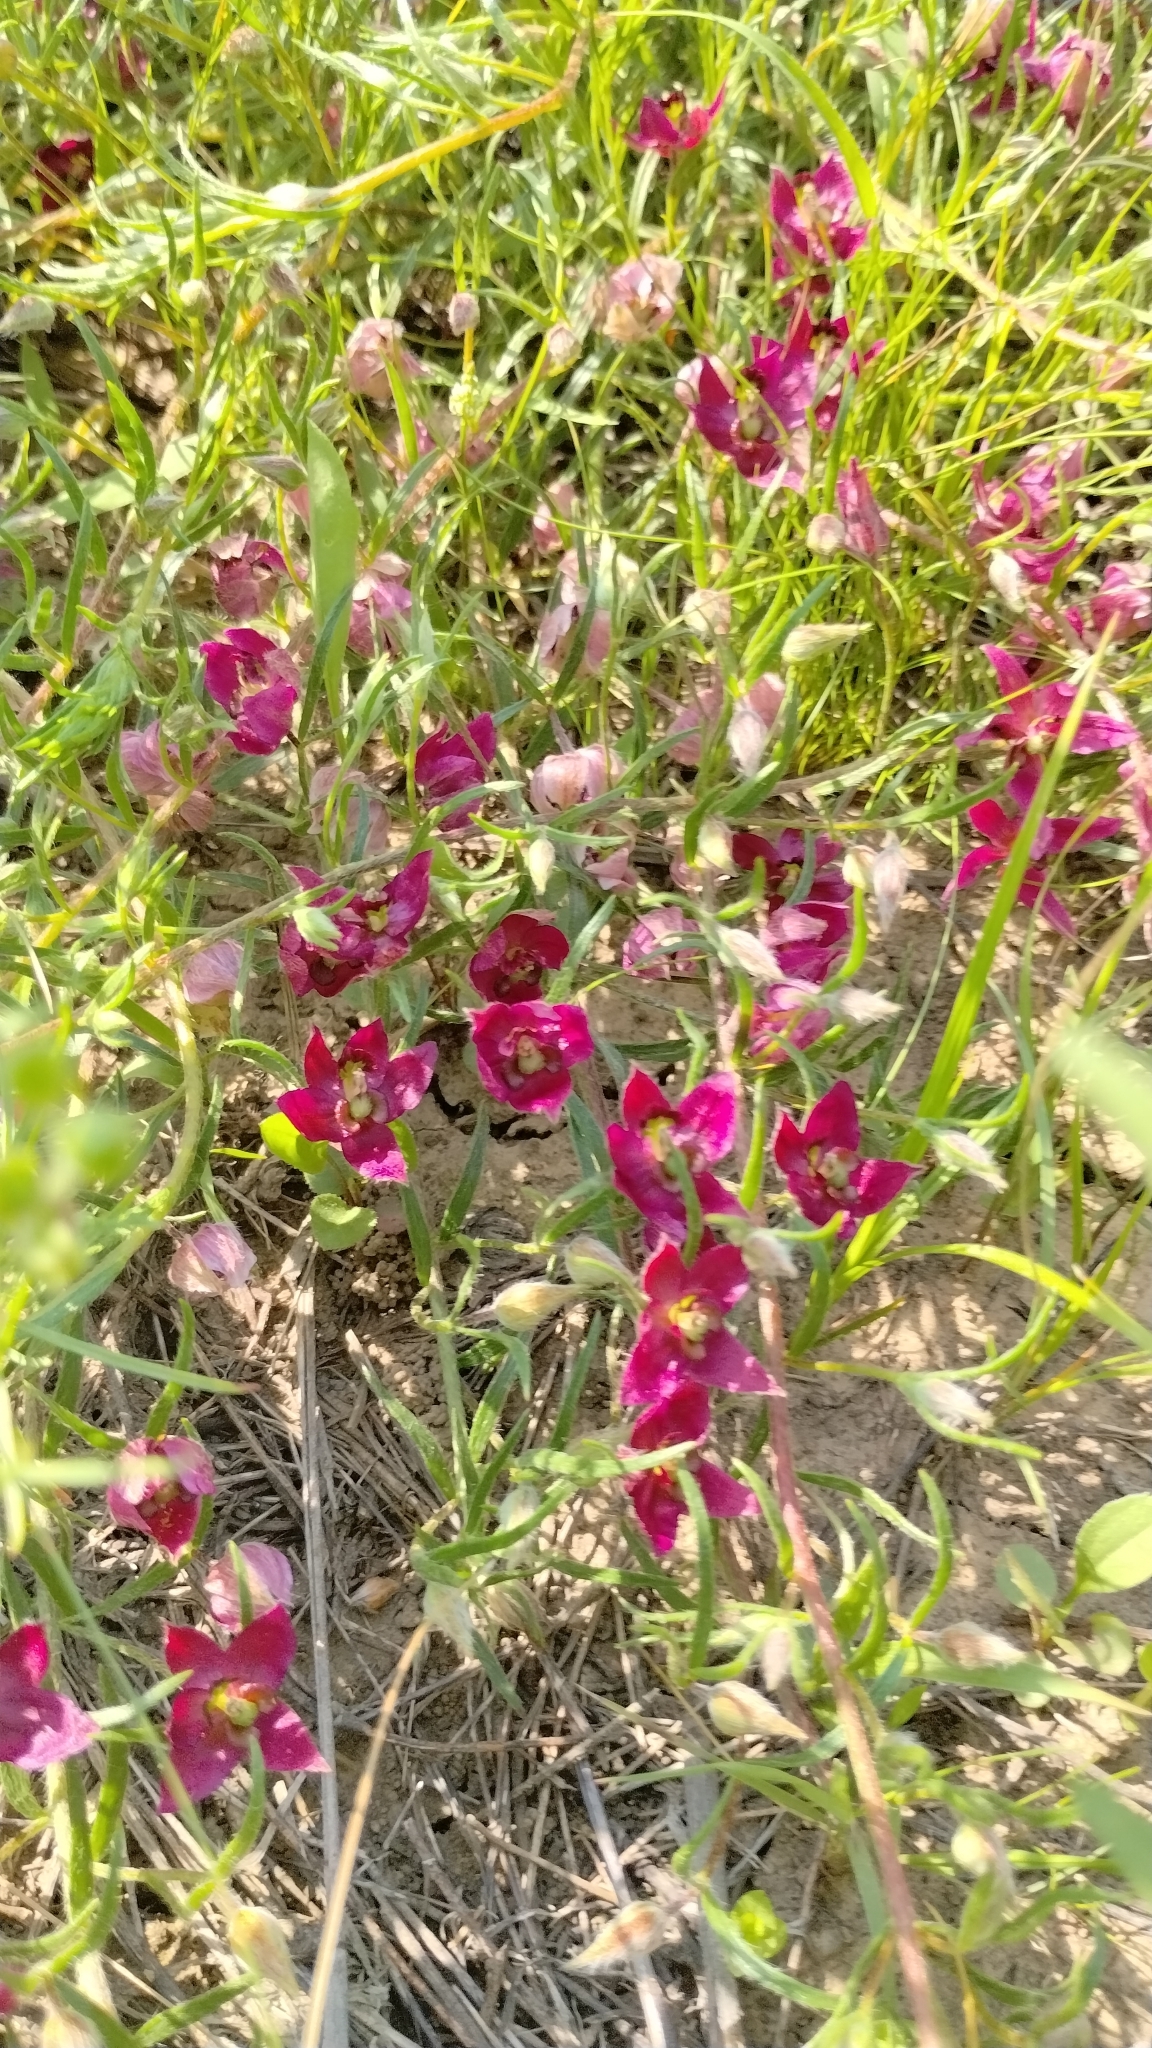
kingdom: Plantae
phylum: Tracheophyta
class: Magnoliopsida
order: Zygophyllales
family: Krameriaceae
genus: Krameria
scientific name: Krameria lanceolata
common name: Ratany
